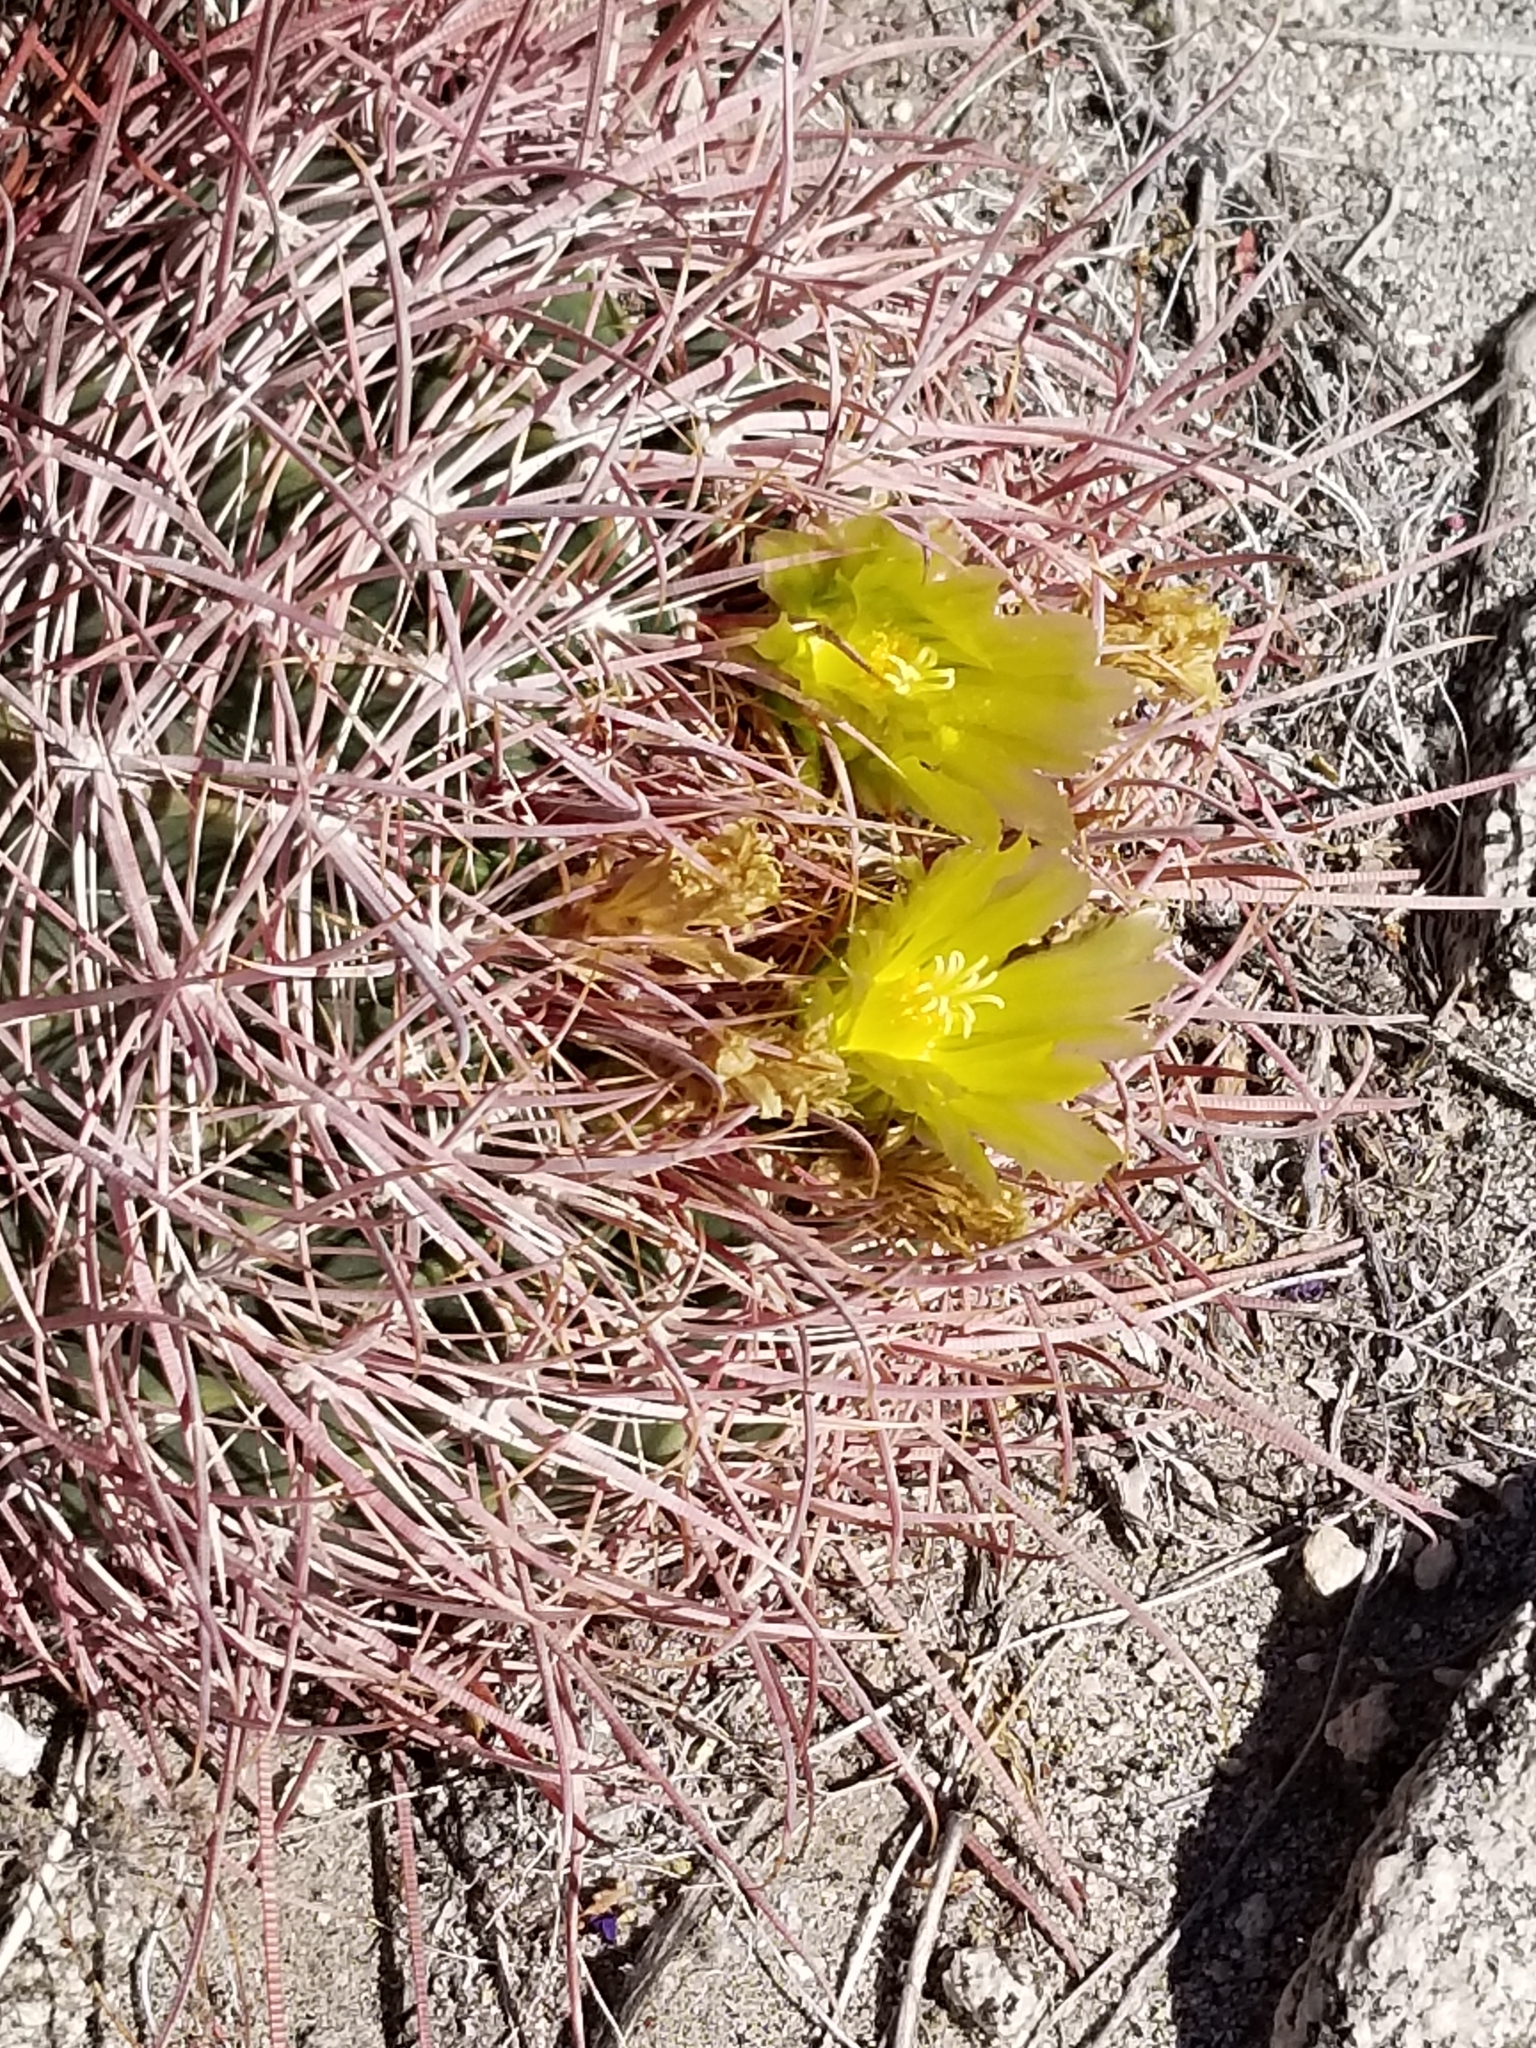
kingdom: Plantae
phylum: Tracheophyta
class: Magnoliopsida
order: Caryophyllales
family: Cactaceae
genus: Ferocactus
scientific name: Ferocactus cylindraceus
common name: California barrel cactus
